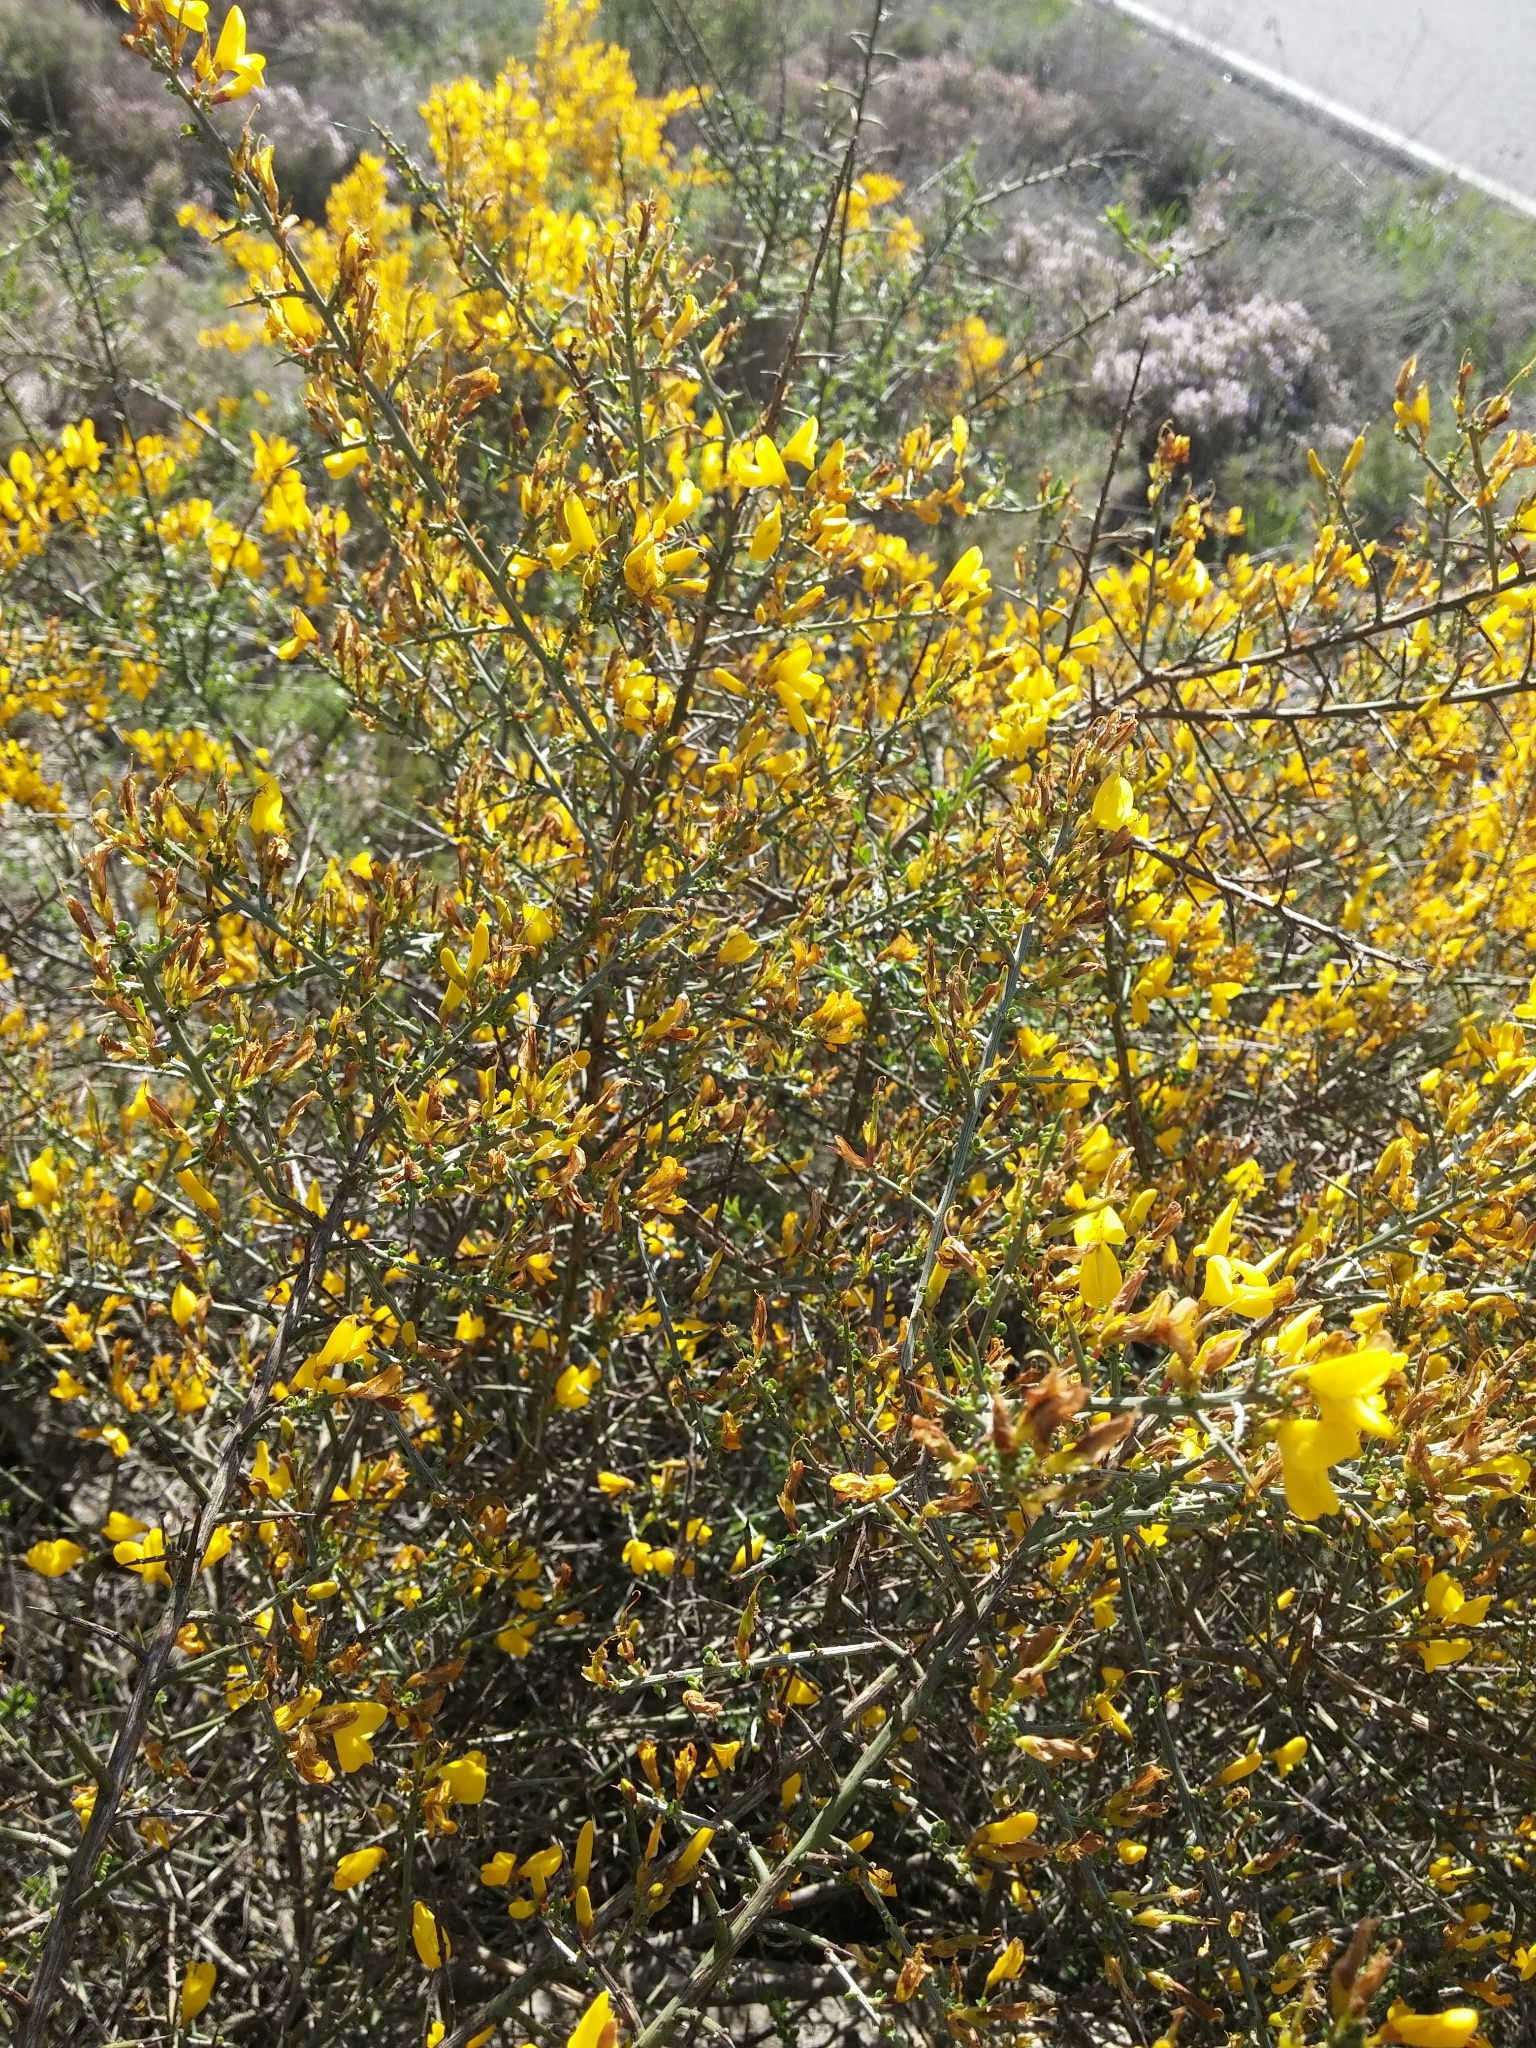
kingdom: Plantae
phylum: Tracheophyta
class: Magnoliopsida
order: Fabales
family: Fabaceae
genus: Genista
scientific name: Genista scorpius
